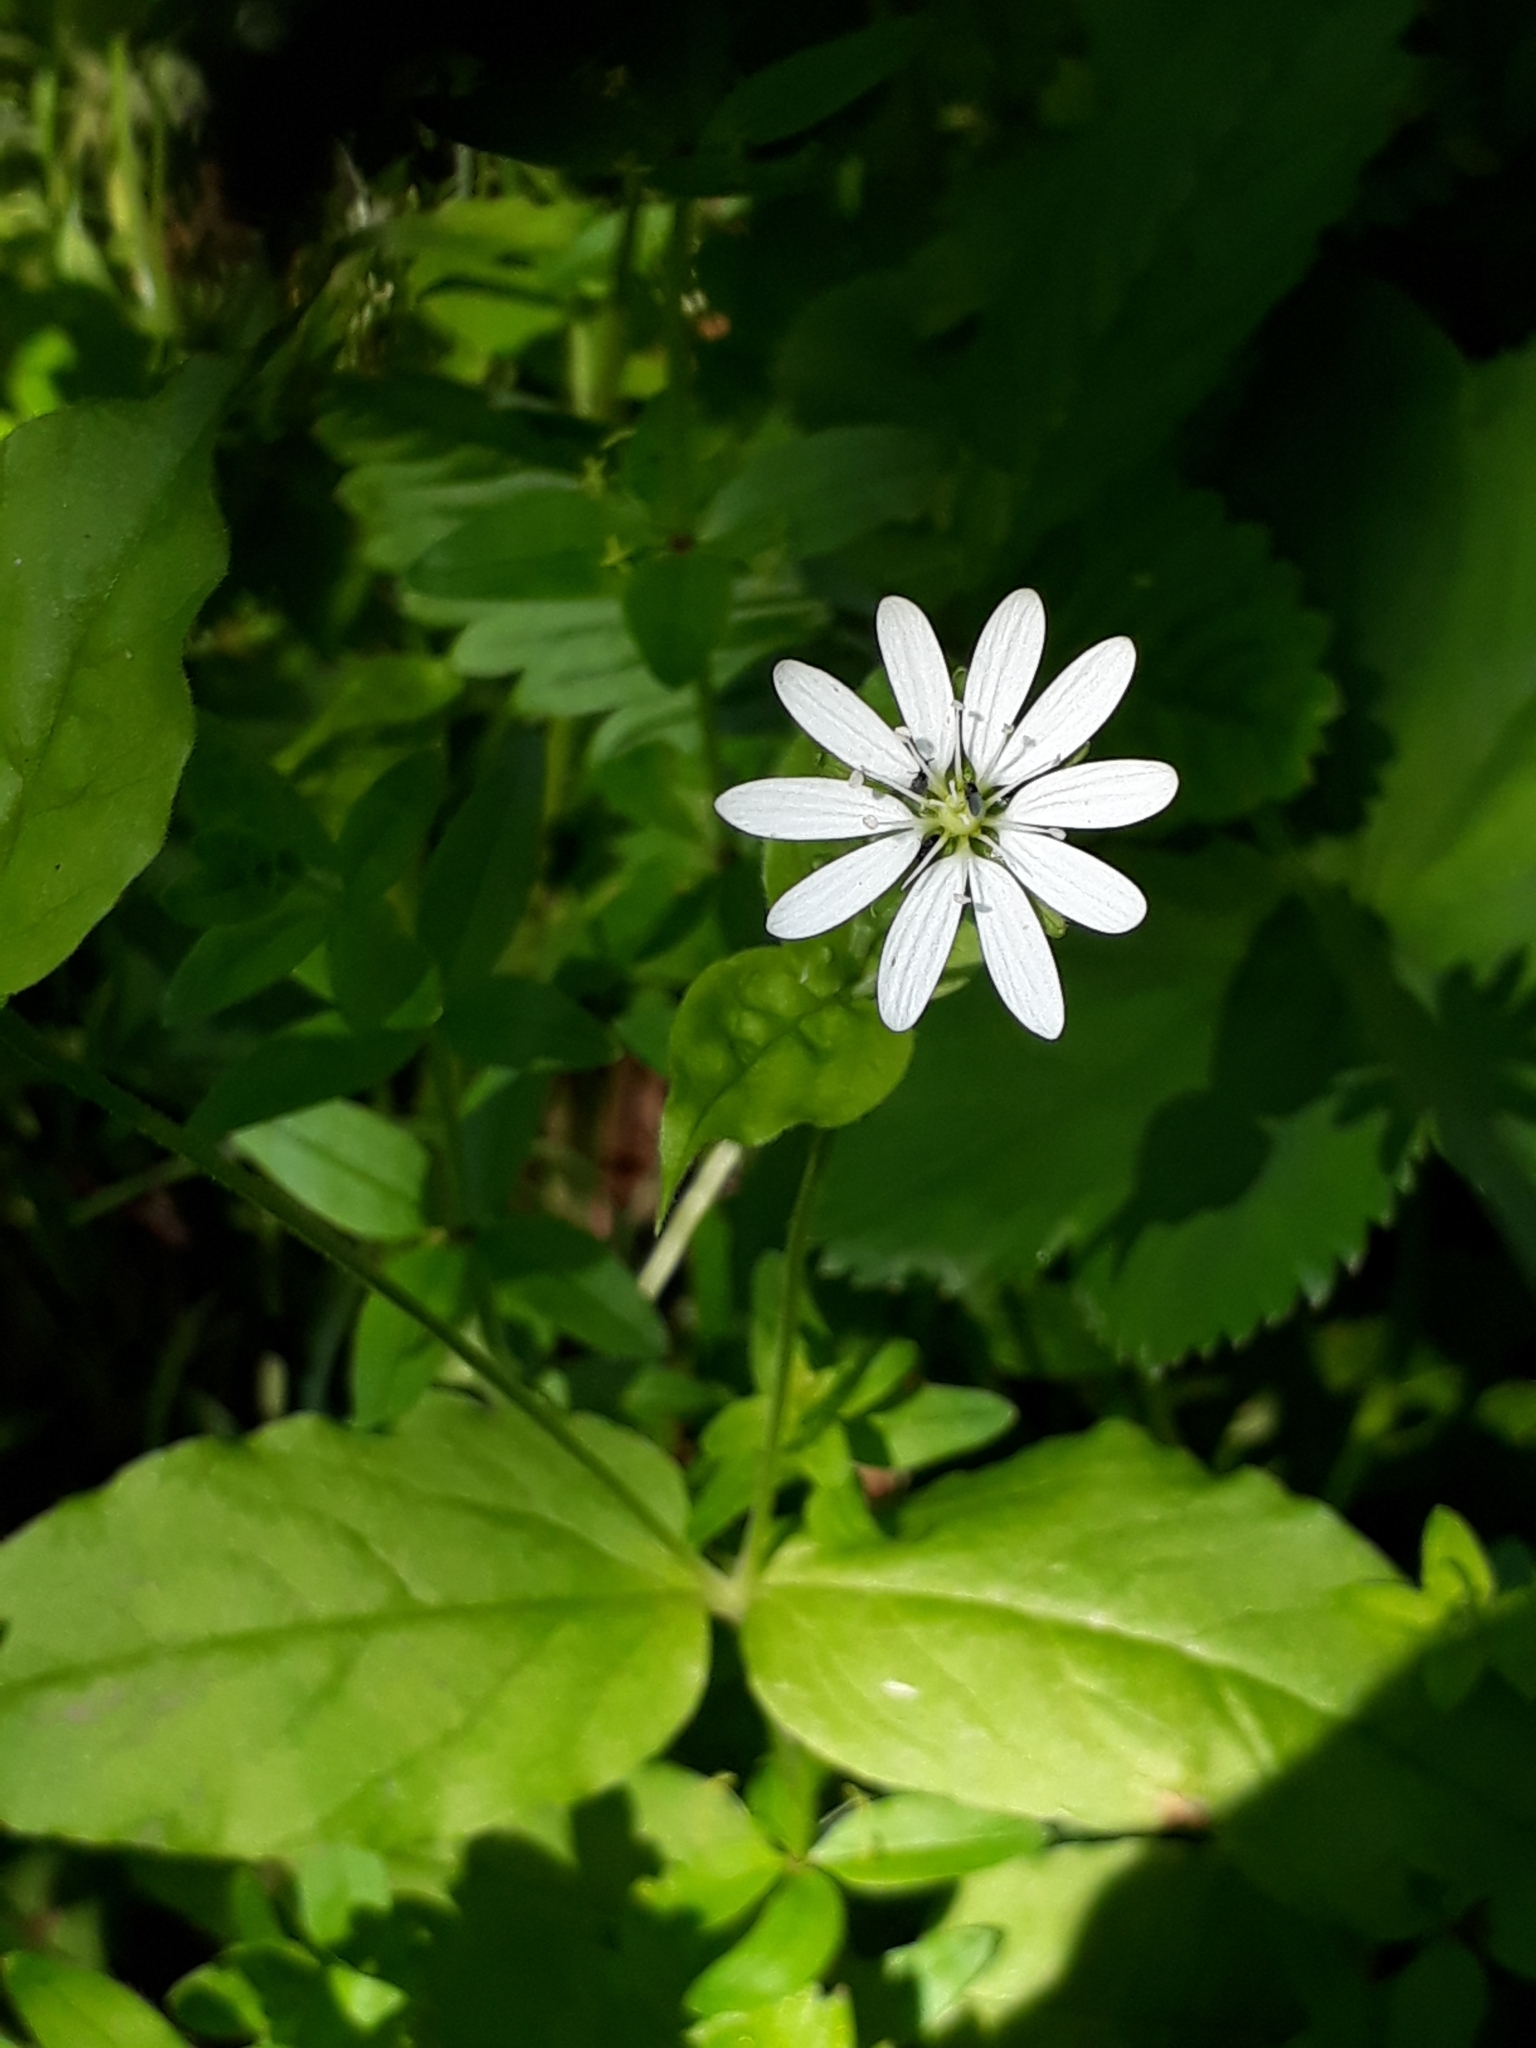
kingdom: Plantae
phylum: Tracheophyta
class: Magnoliopsida
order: Caryophyllales
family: Caryophyllaceae
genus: Stellaria
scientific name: Stellaria bungeana
